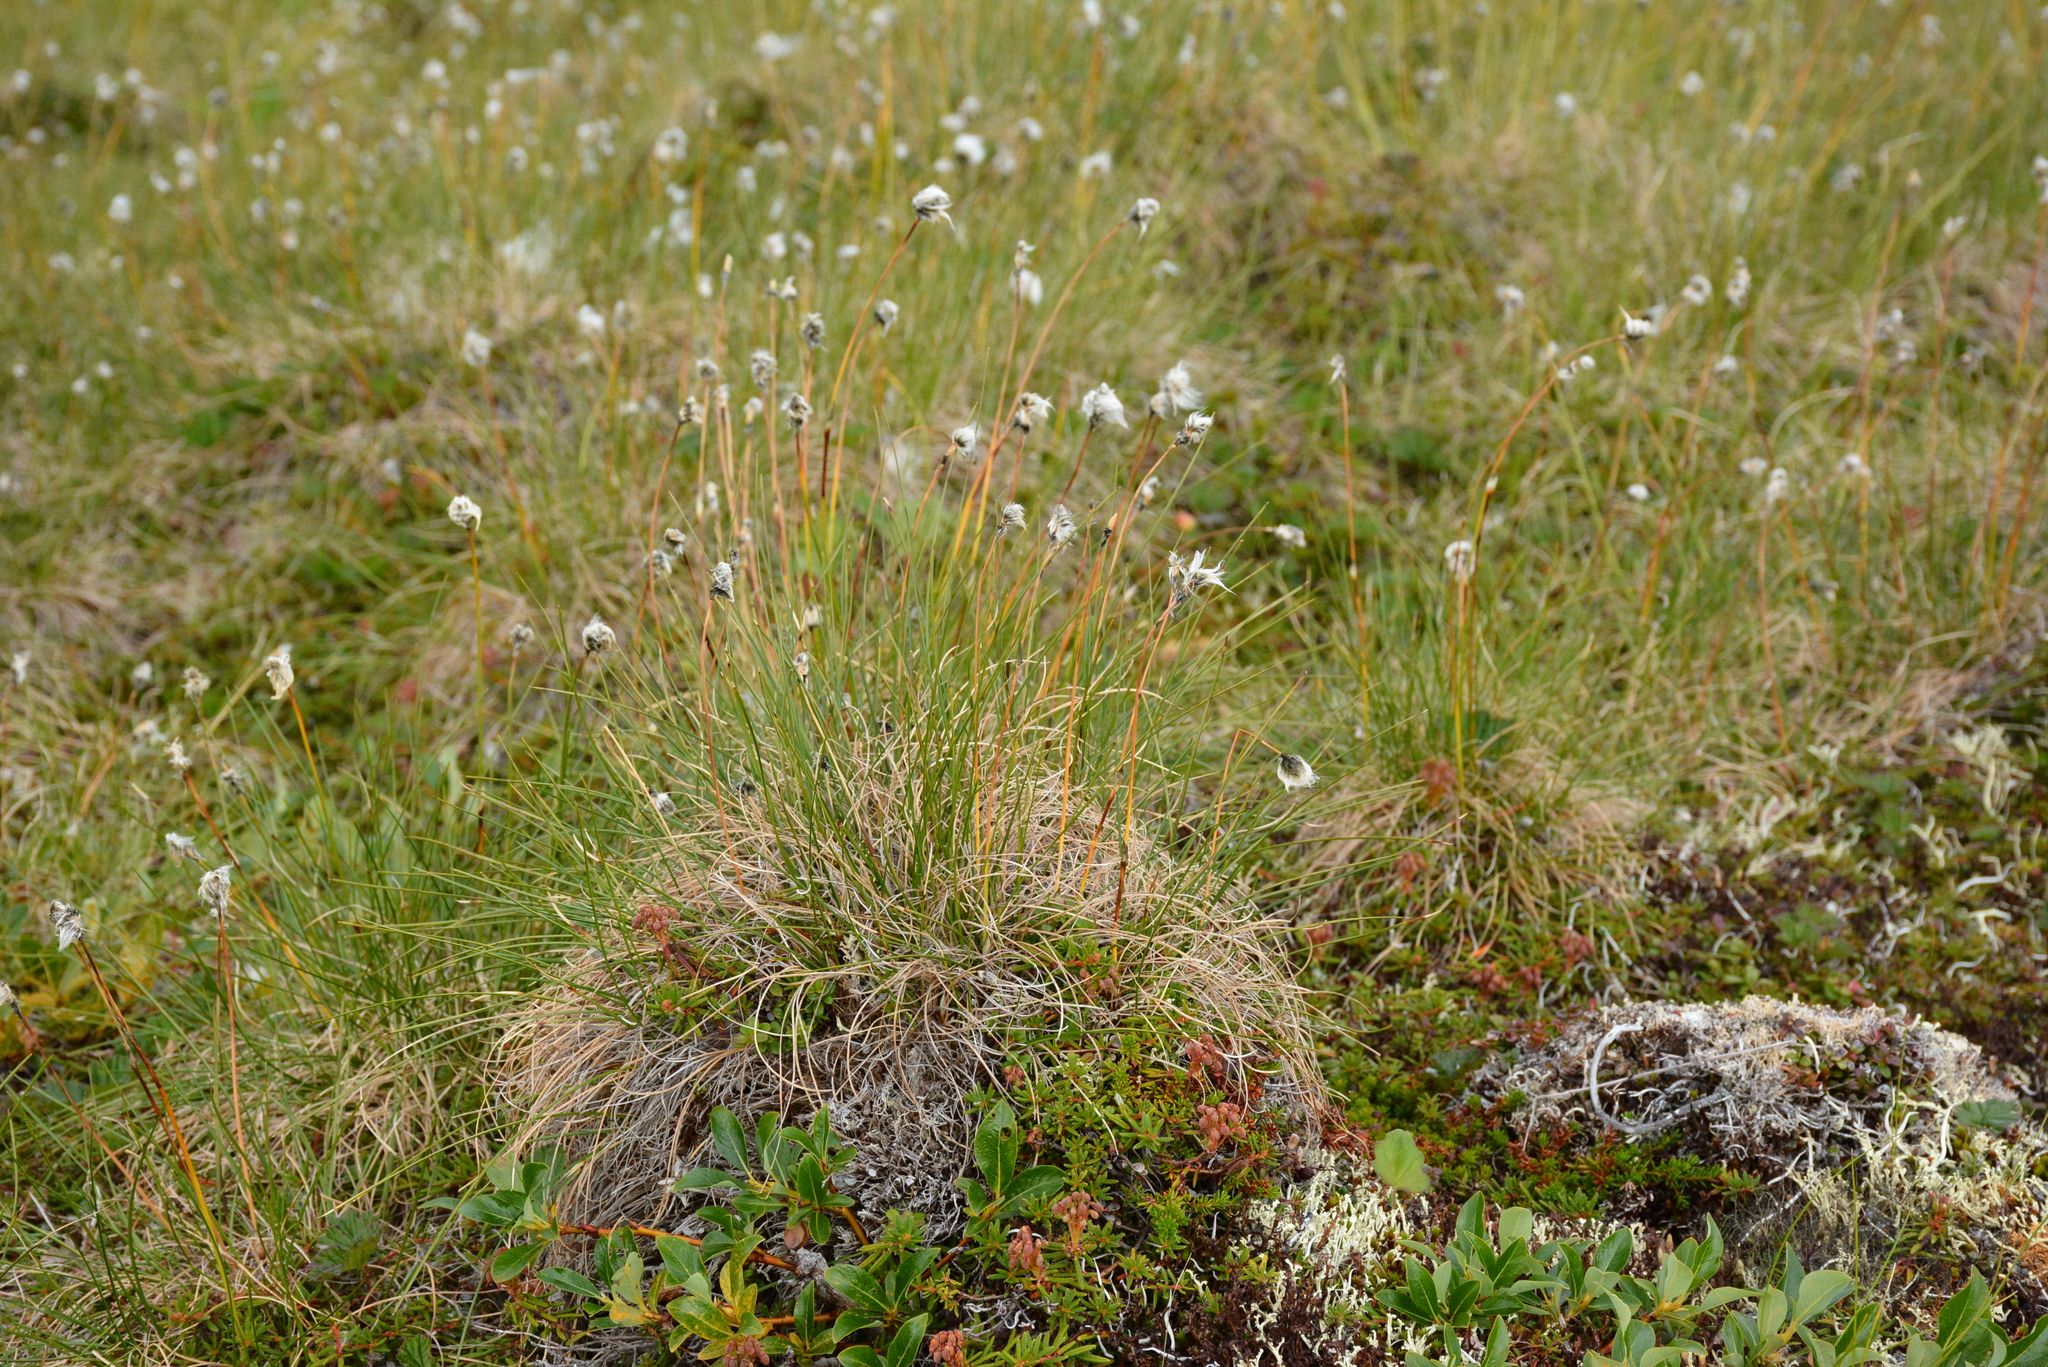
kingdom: Plantae
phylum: Tracheophyta
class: Liliopsida
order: Poales
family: Cyperaceae
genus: Eriophorum
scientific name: Eriophorum vaginatum
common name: Hare's-tail cottongrass
